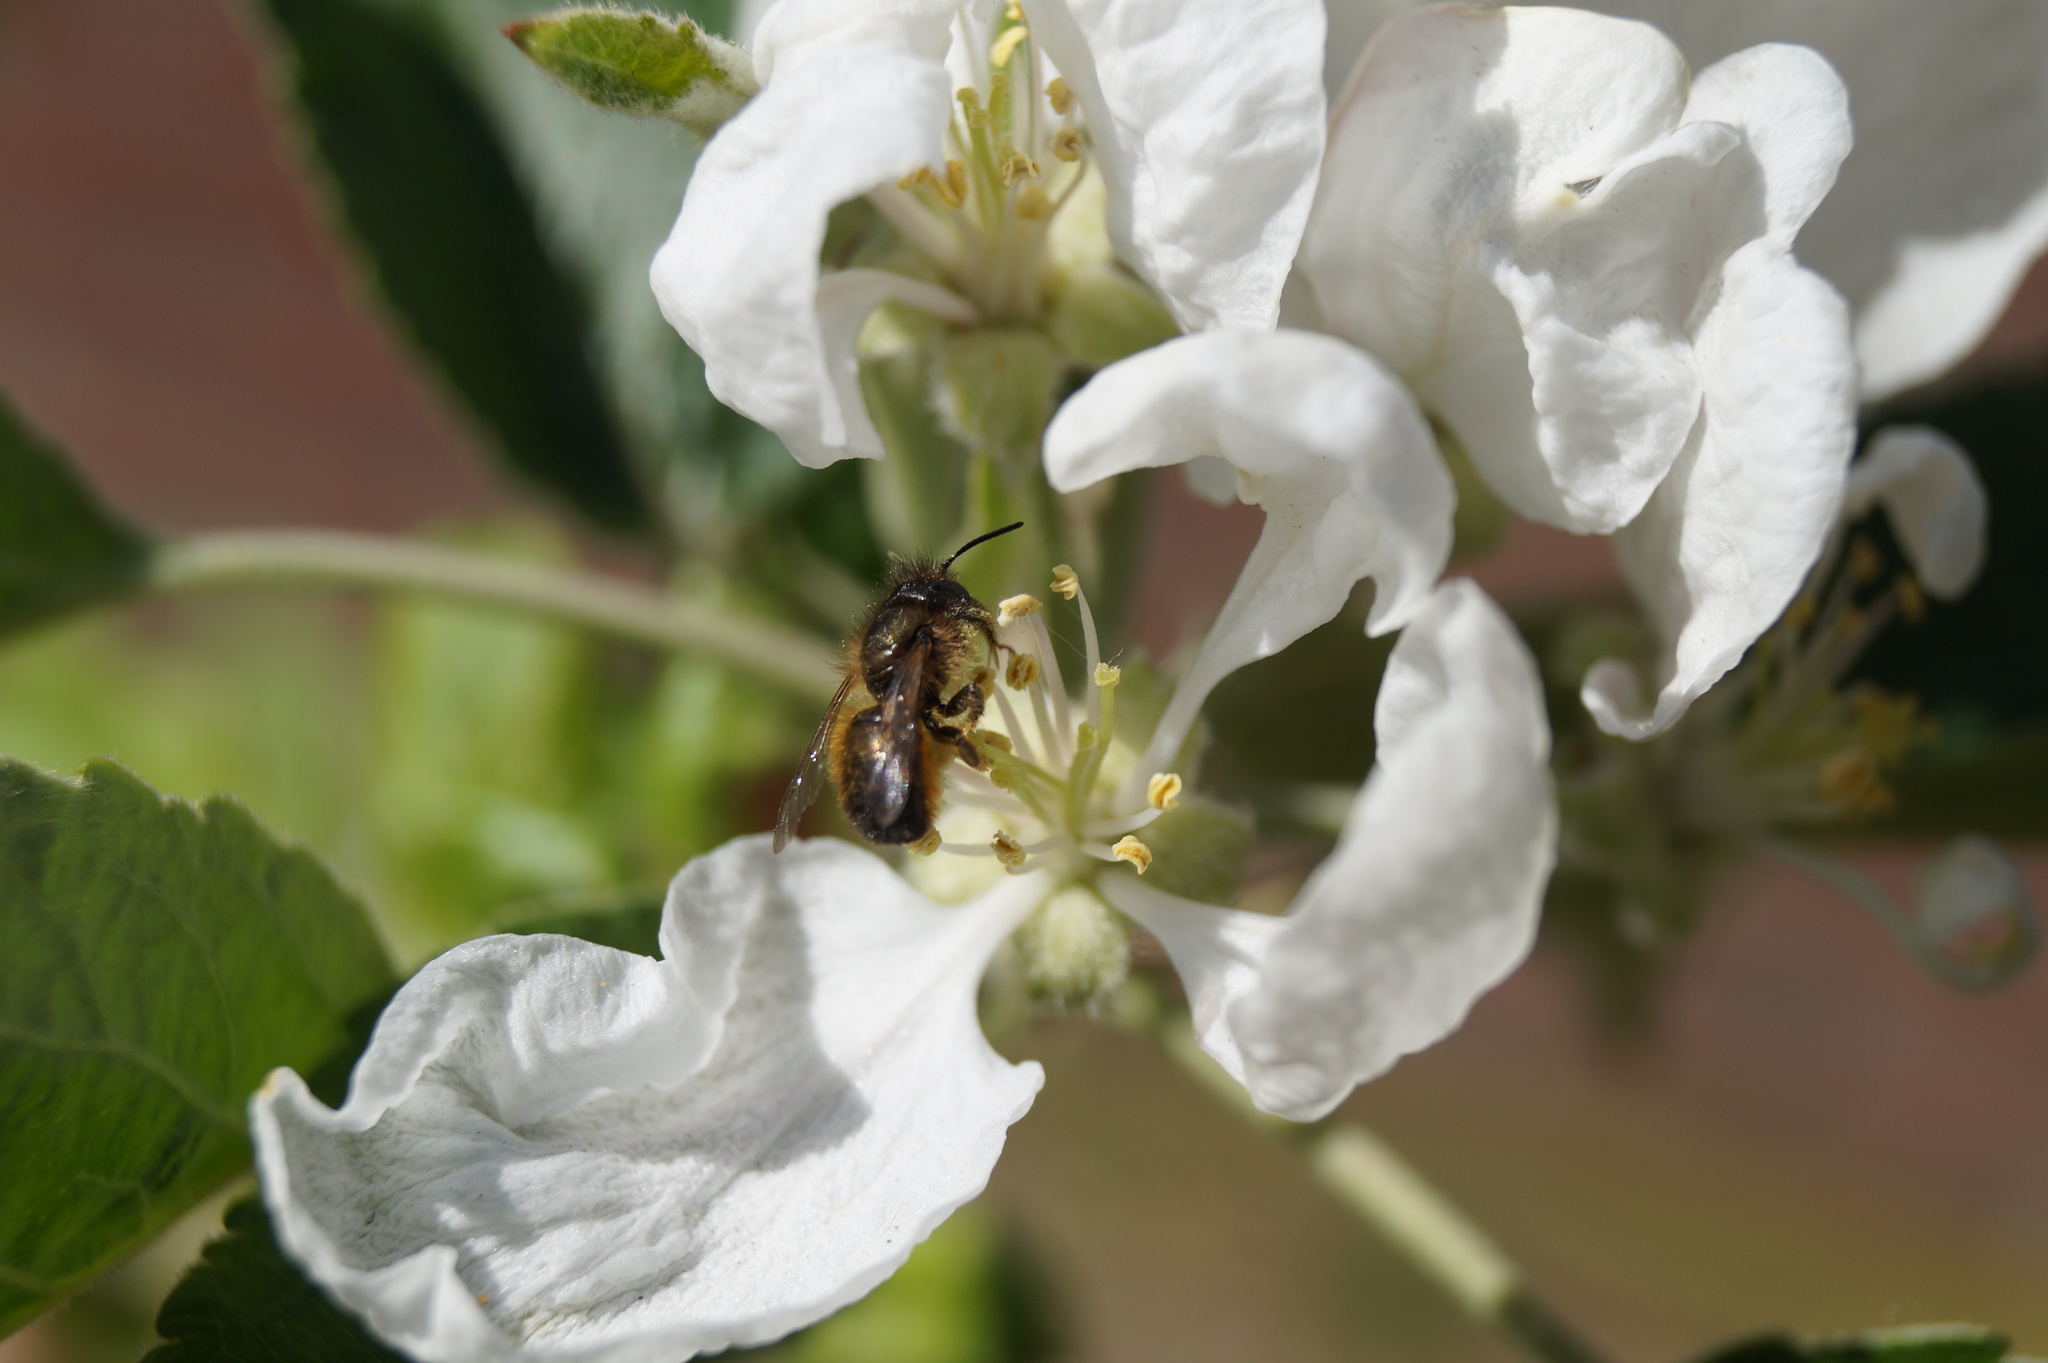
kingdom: Animalia
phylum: Arthropoda
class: Insecta
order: Hymenoptera
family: Megachilidae
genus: Osmia
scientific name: Osmia bicornis
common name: Red mason bee
